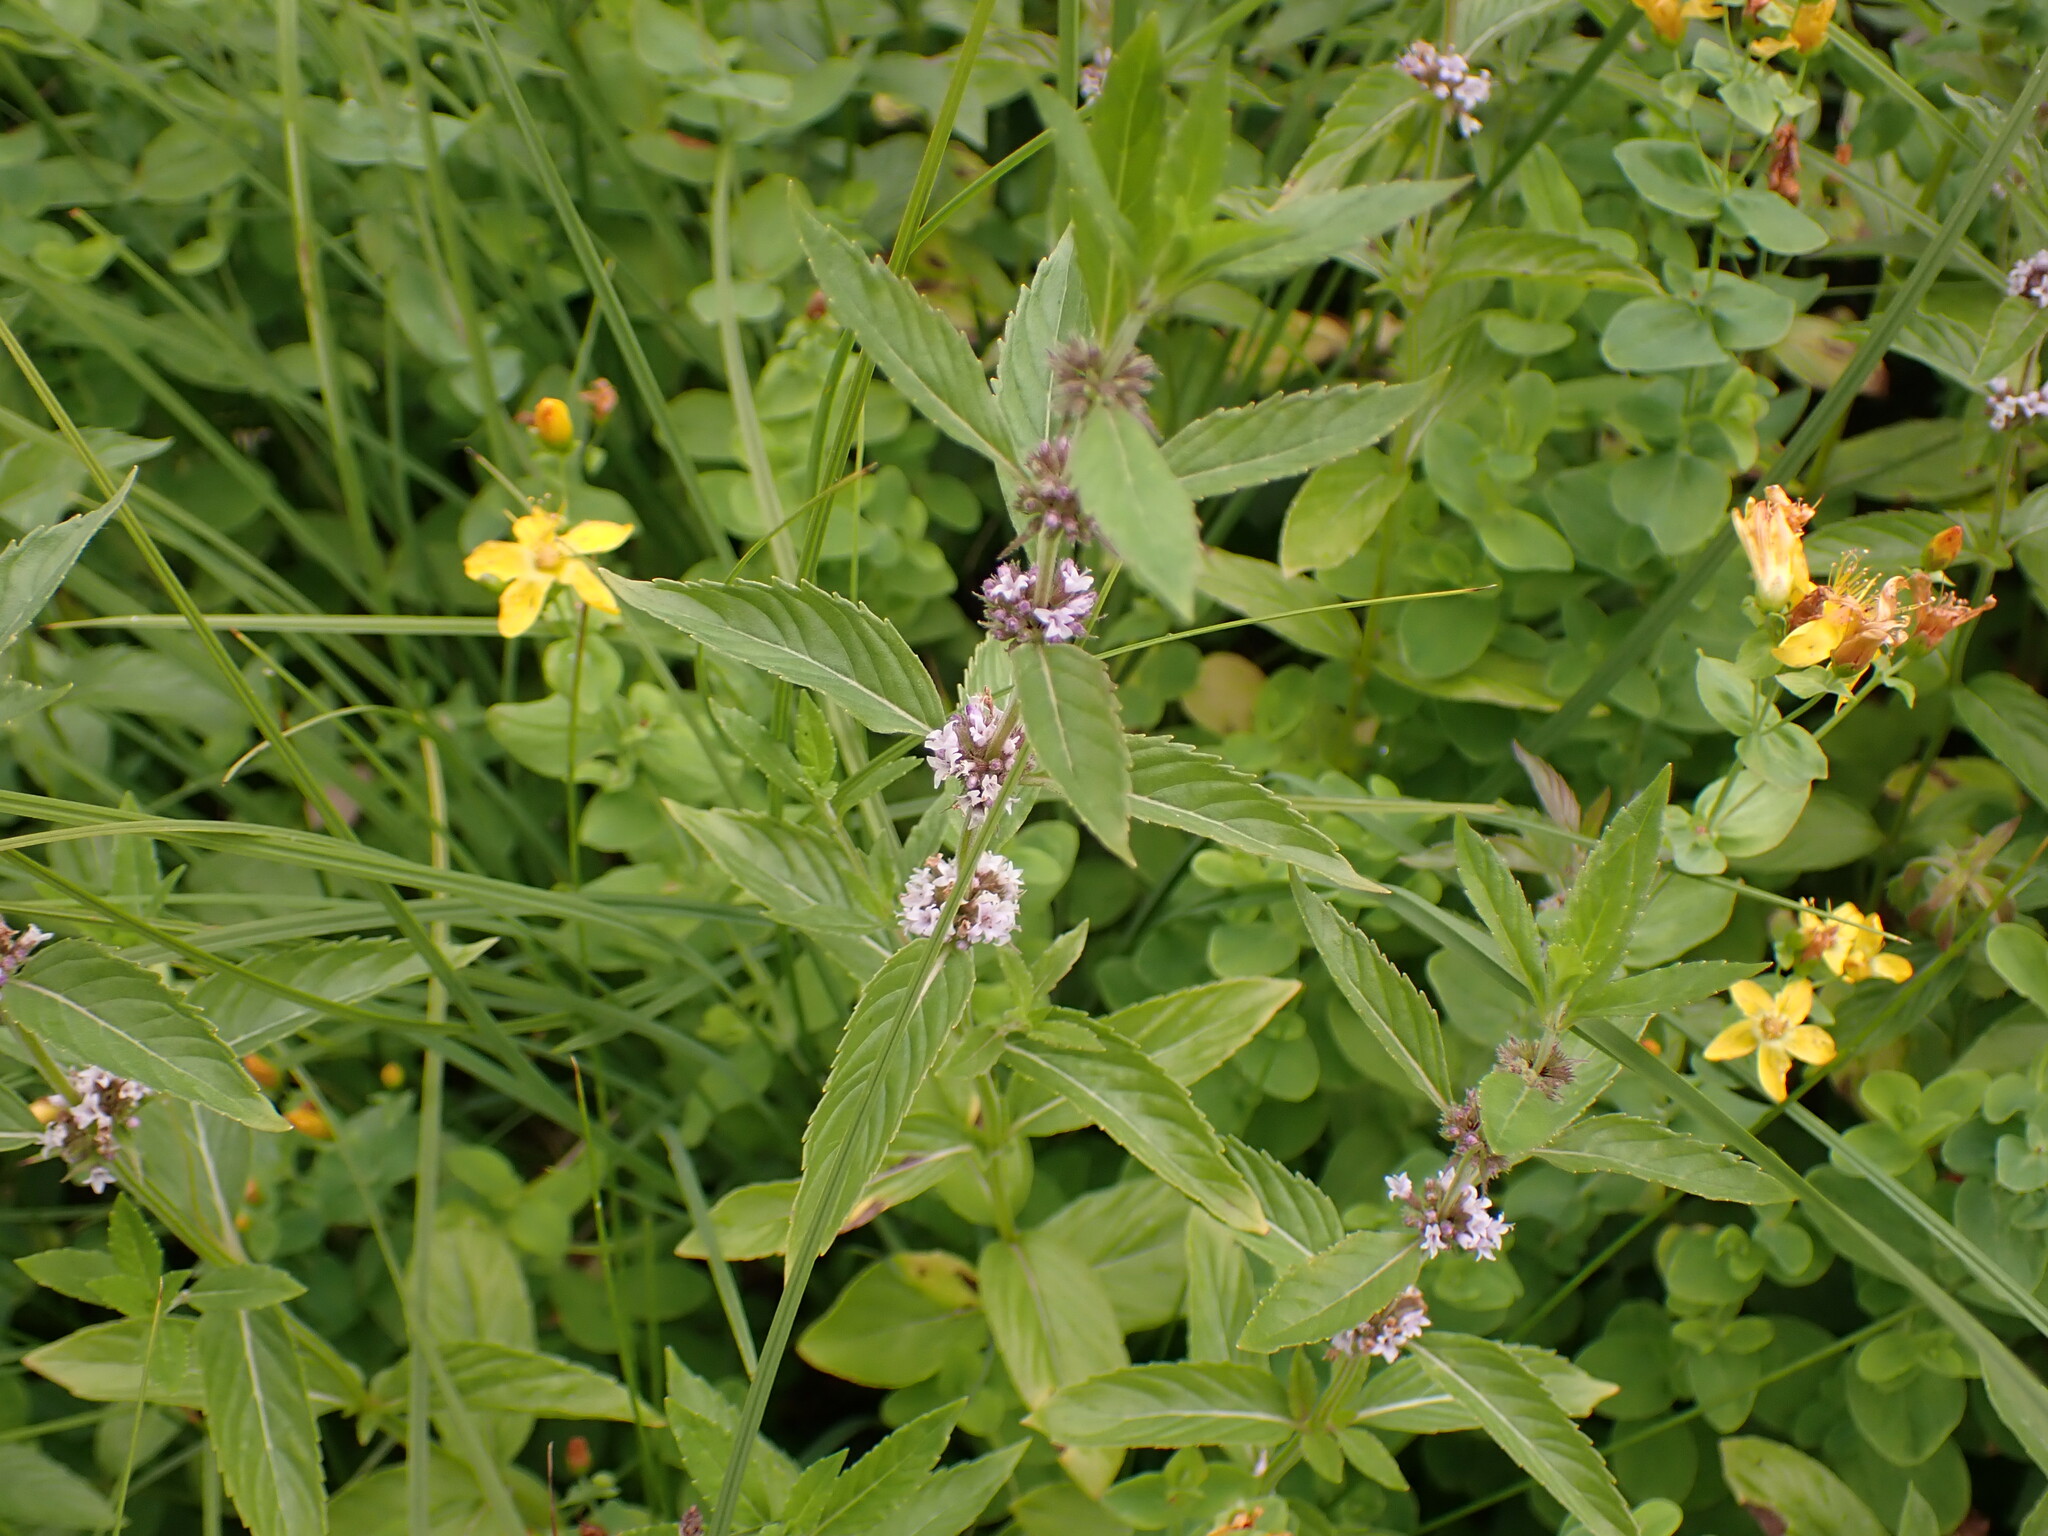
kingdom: Plantae
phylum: Tracheophyta
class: Magnoliopsida
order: Lamiales
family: Lamiaceae
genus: Mentha
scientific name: Mentha canadensis
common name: American corn mint
